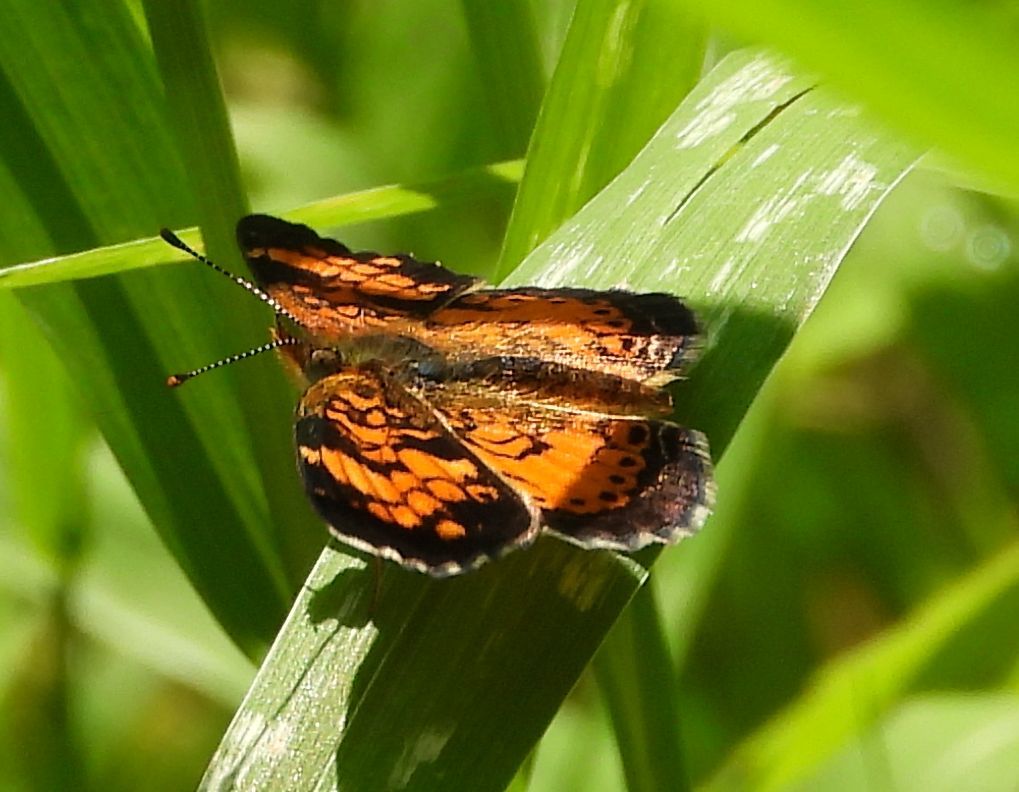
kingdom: Animalia
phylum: Arthropoda
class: Insecta
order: Lepidoptera
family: Nymphalidae
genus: Phyciodes
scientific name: Phyciodes tharos
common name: Pearl crescent
